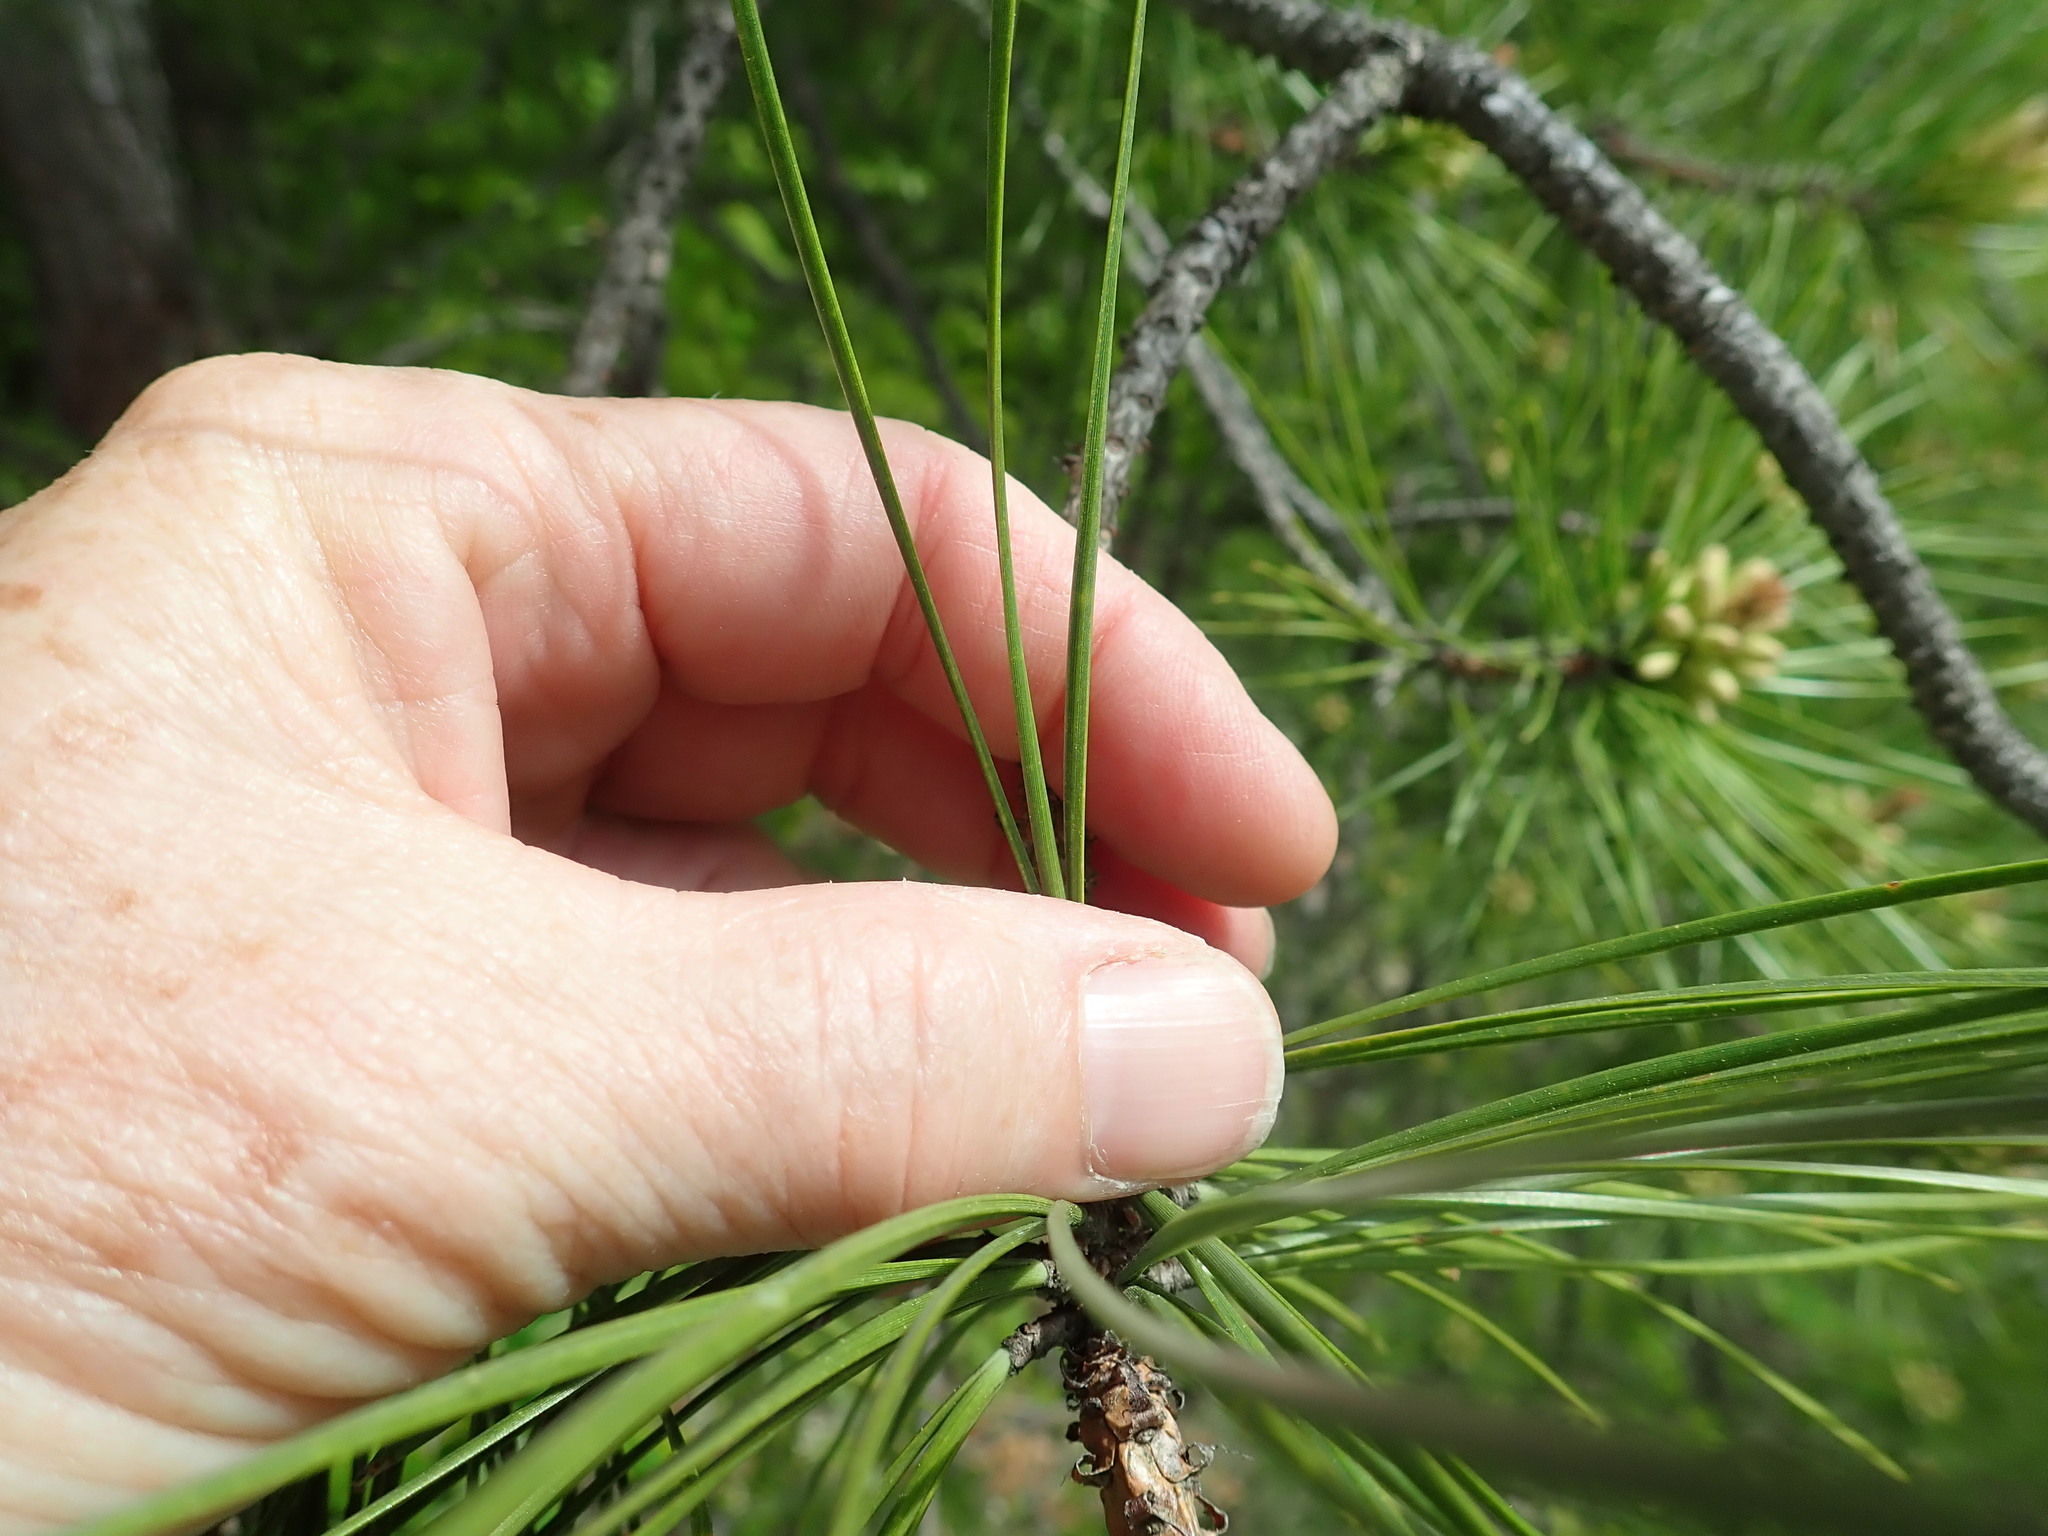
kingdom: Plantae
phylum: Tracheophyta
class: Pinopsida
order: Pinales
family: Pinaceae
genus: Pinus
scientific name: Pinus rigida
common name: Pitch pine
